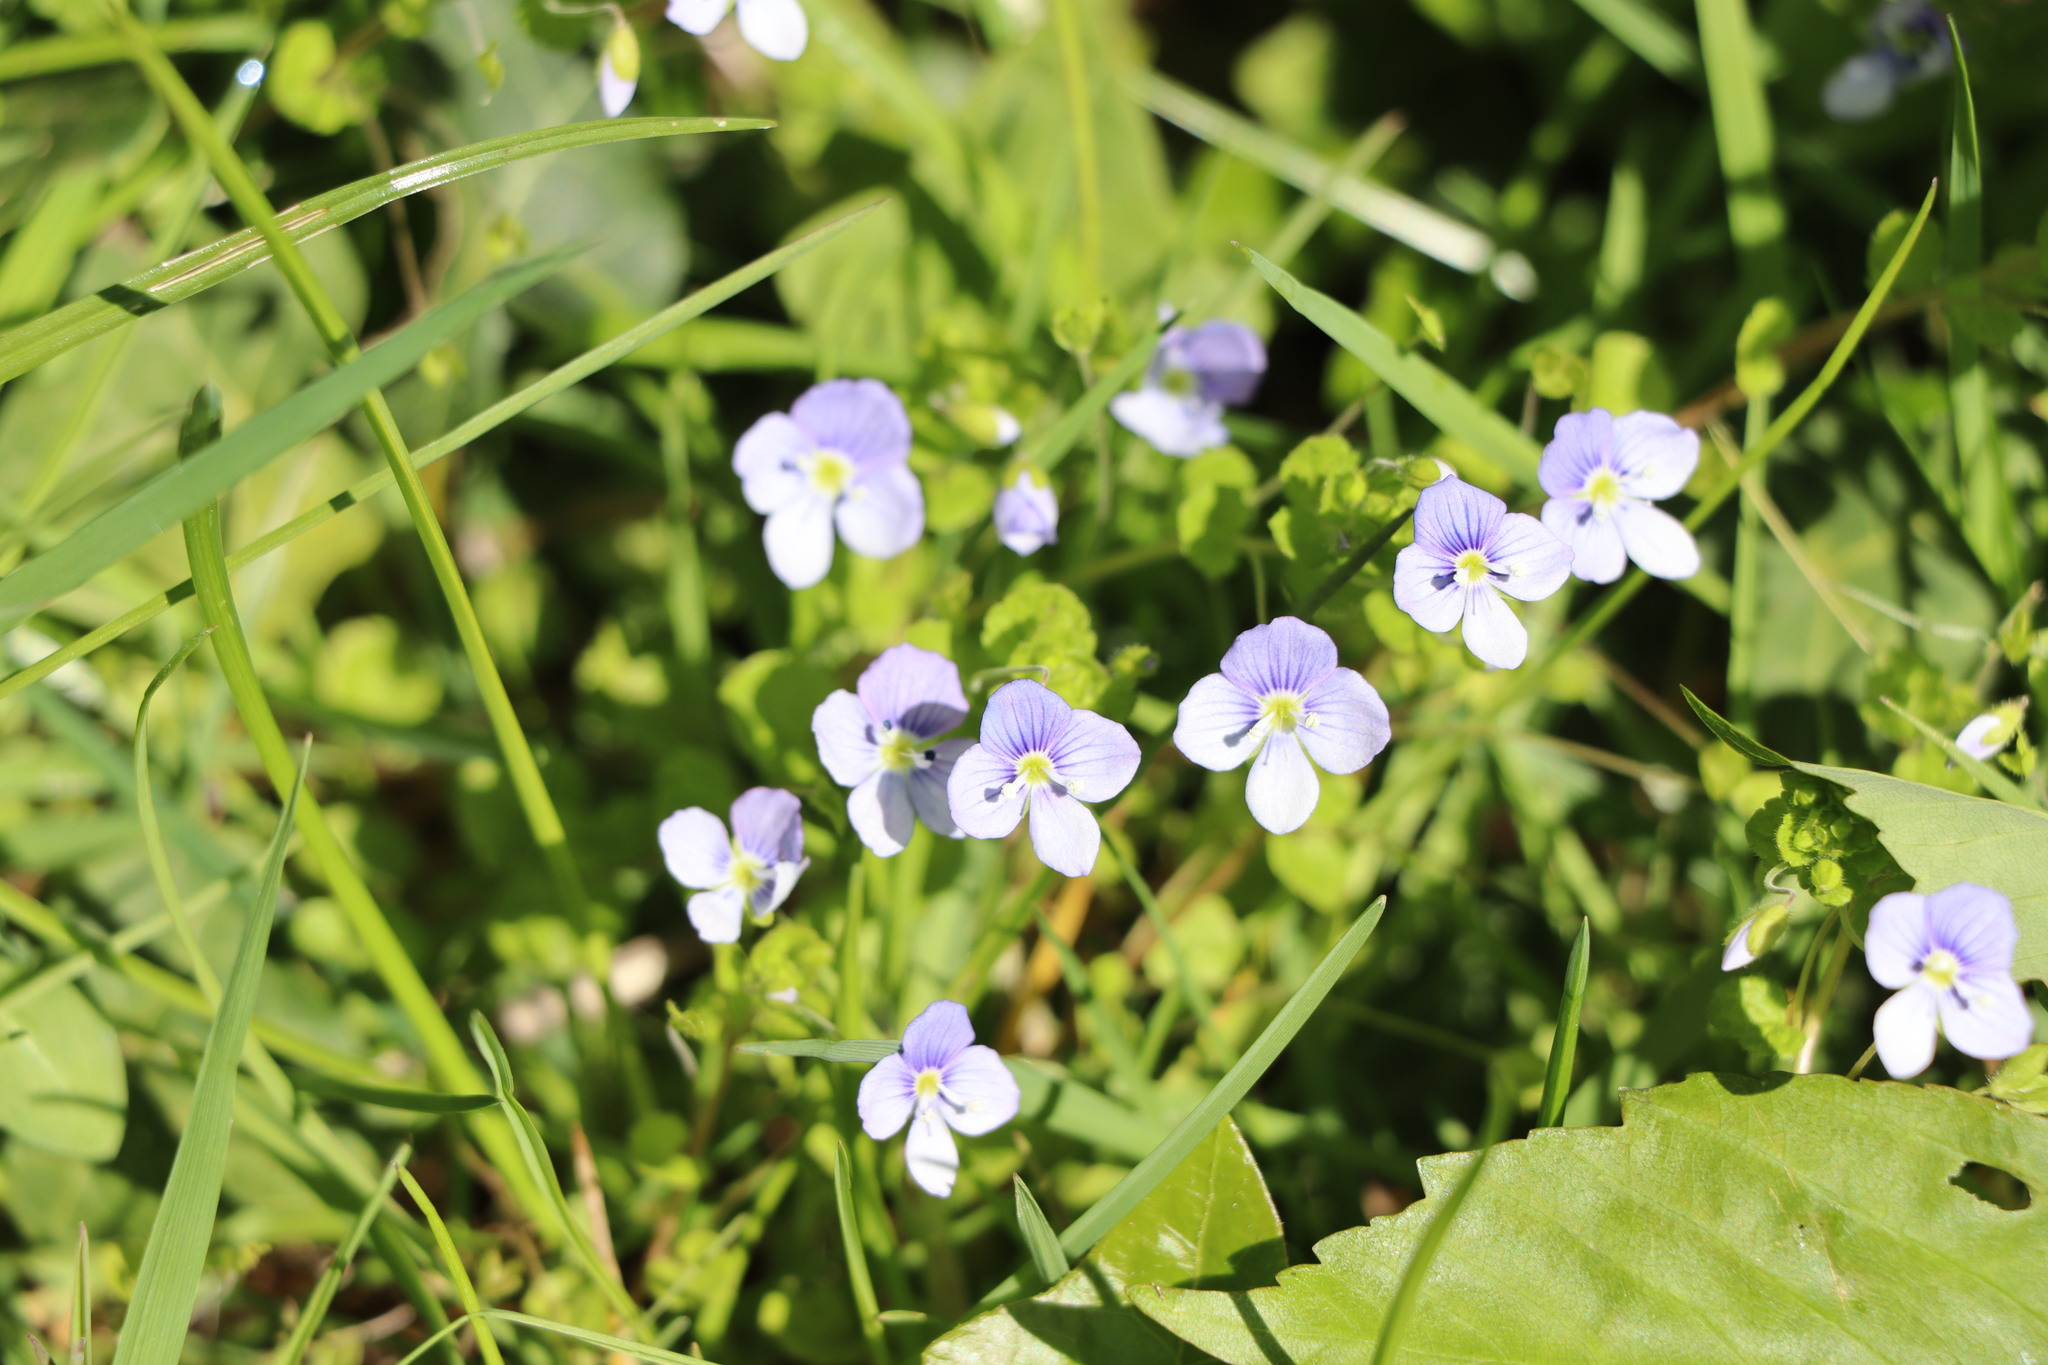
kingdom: Plantae
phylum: Tracheophyta
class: Magnoliopsida
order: Lamiales
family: Plantaginaceae
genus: Veronica
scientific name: Veronica filiformis
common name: Slender speedwell
